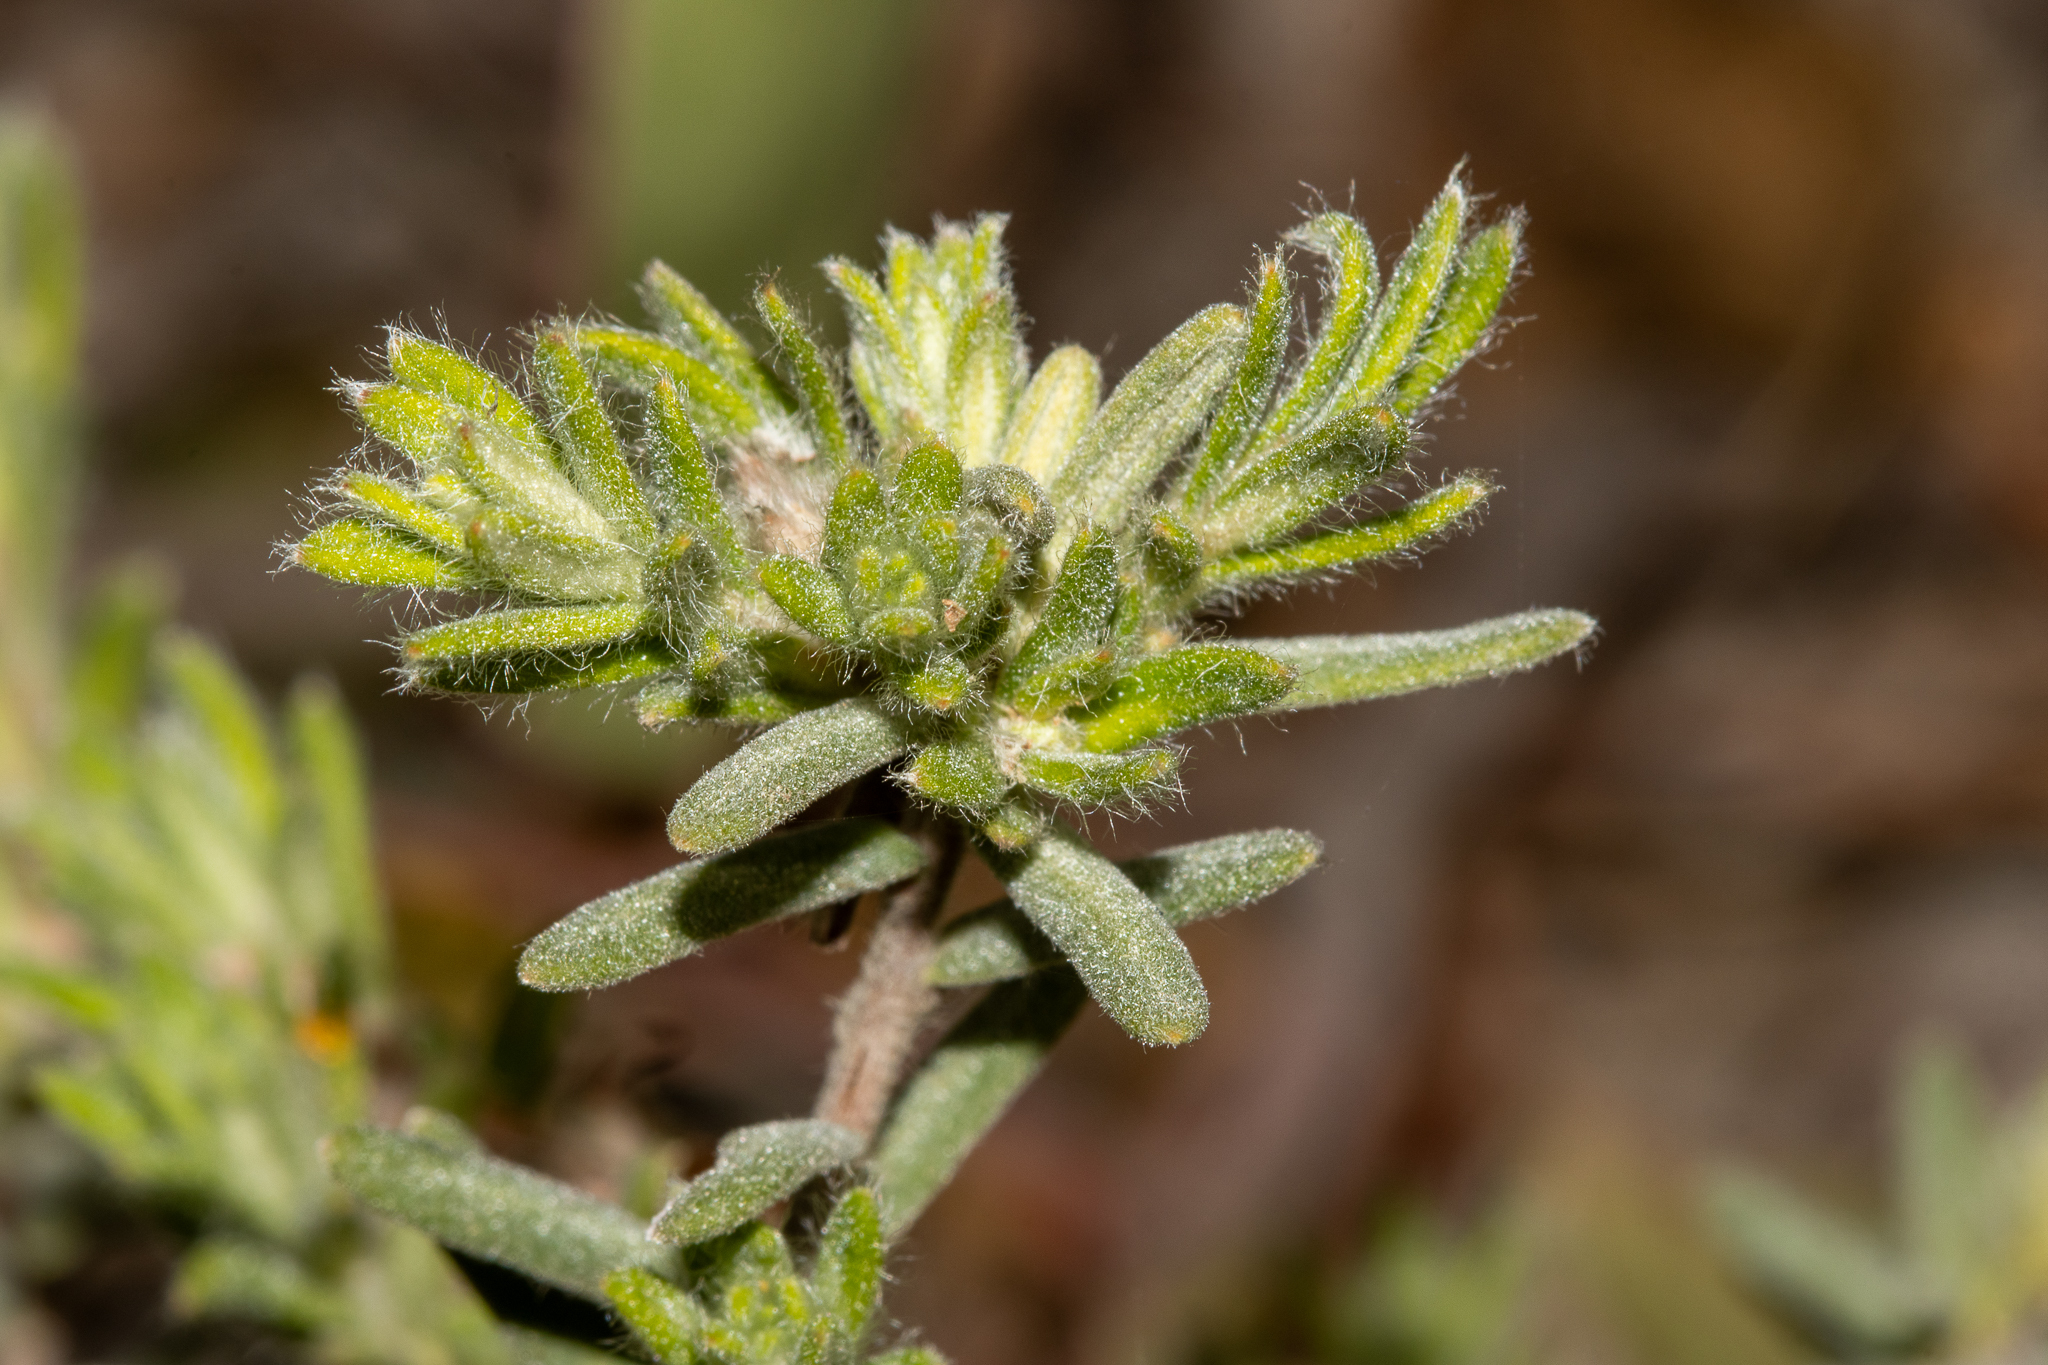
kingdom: Plantae
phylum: Tracheophyta
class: Magnoliopsida
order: Dilleniales
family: Dilleniaceae
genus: Hibbertia
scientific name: Hibbertia crinita
